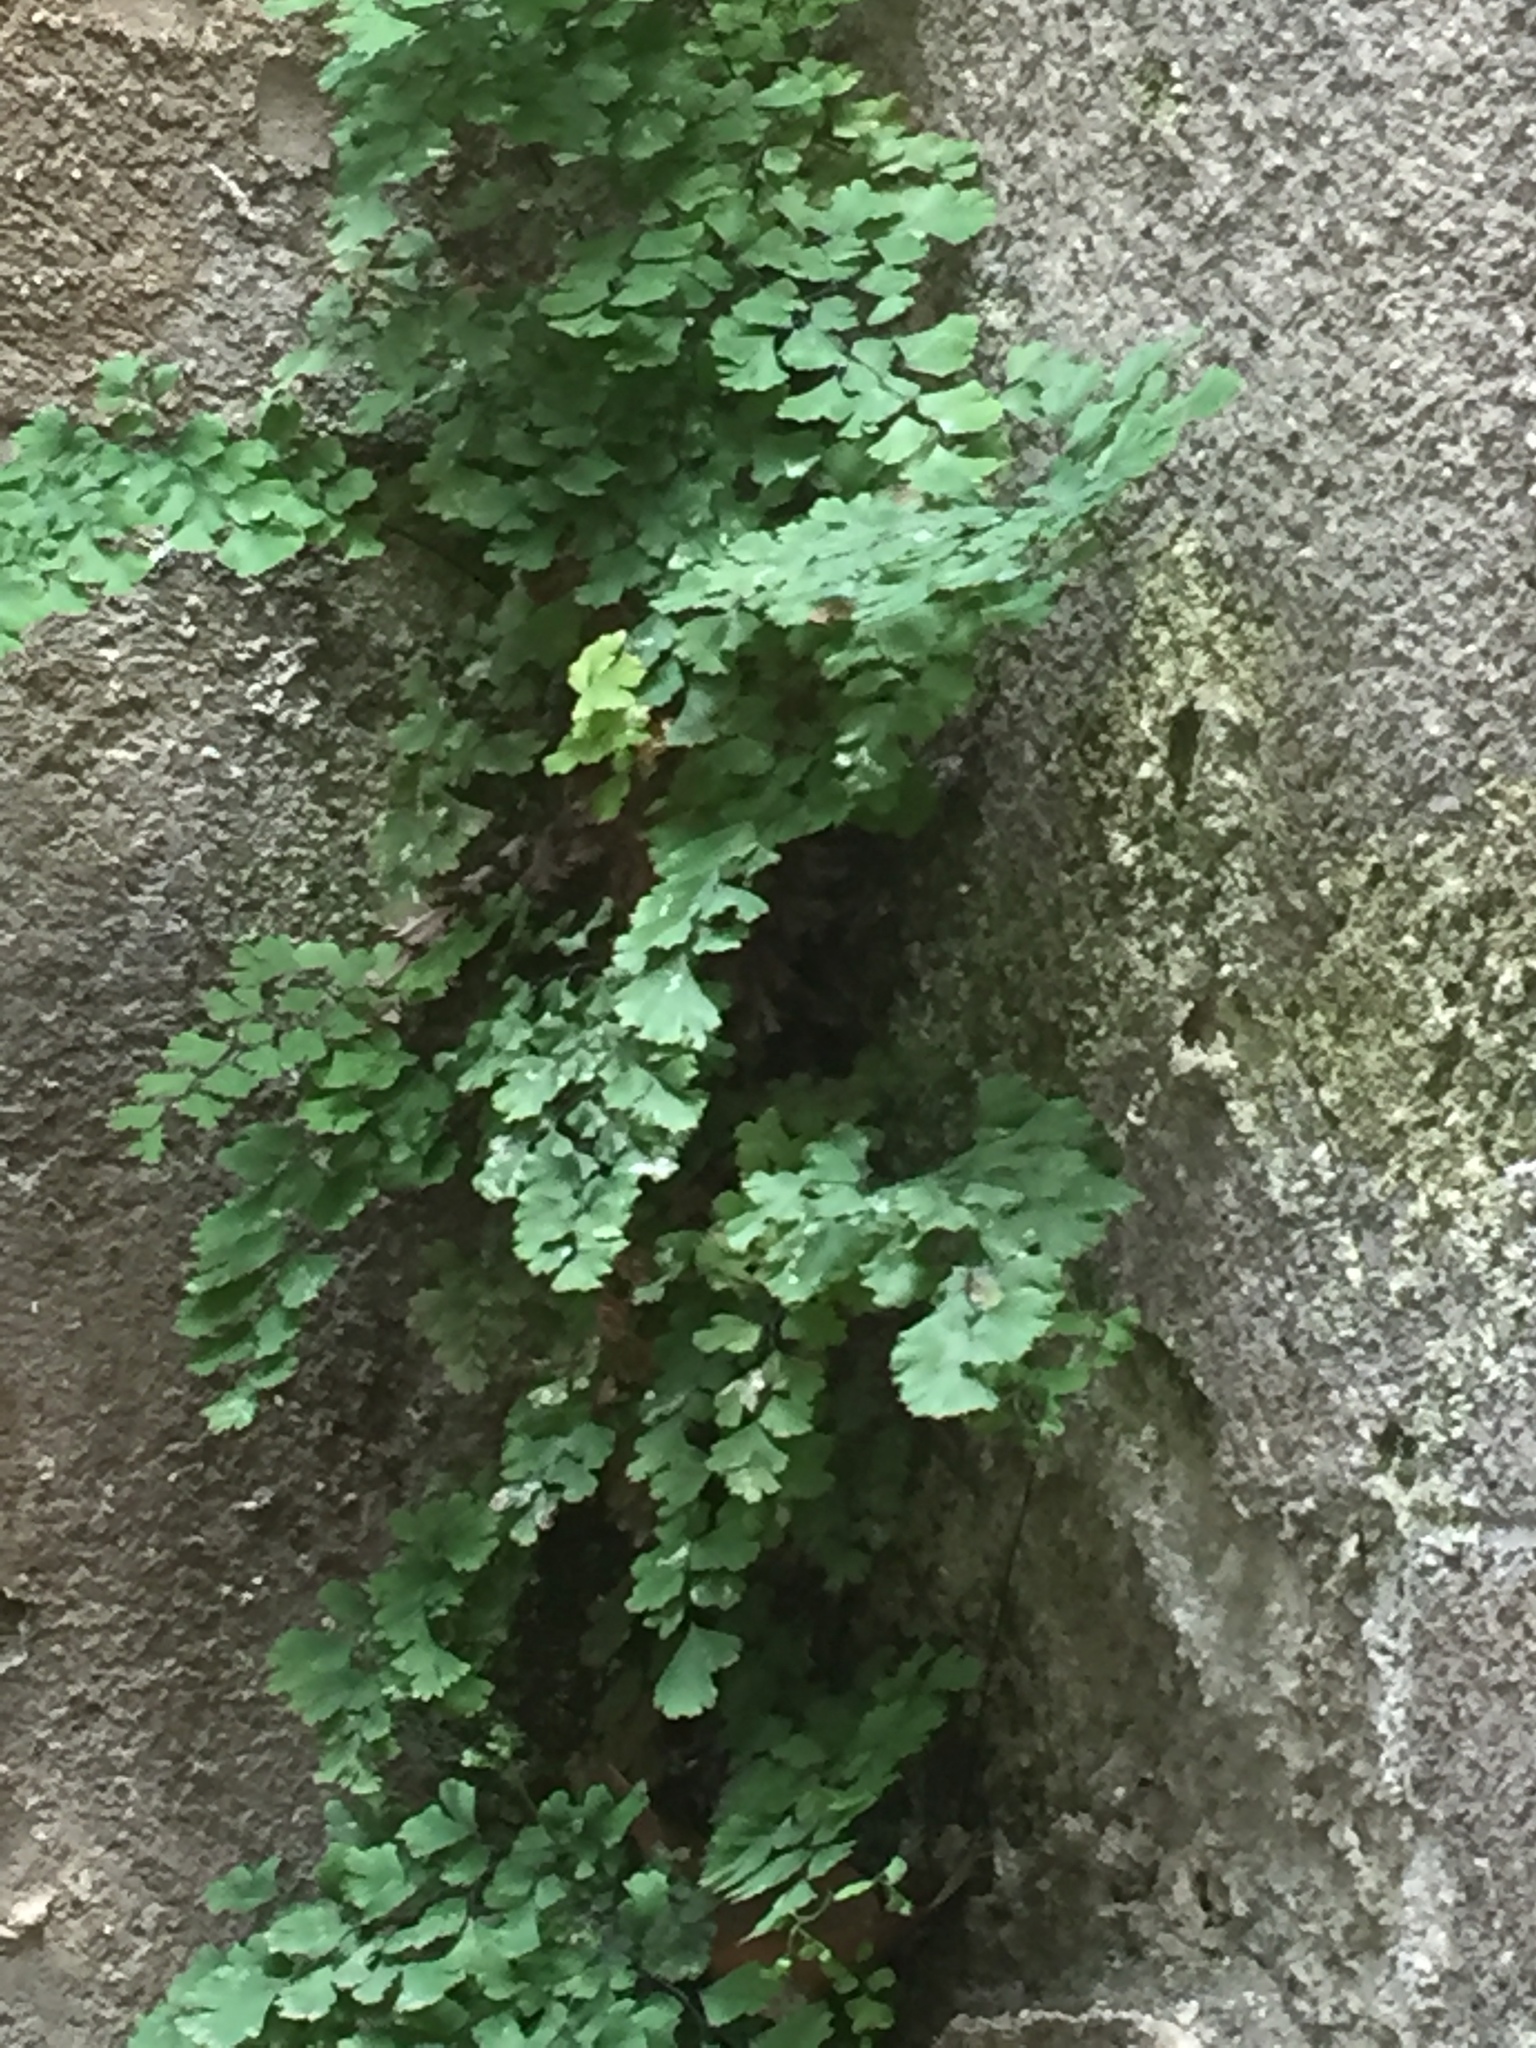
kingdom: Plantae
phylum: Tracheophyta
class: Polypodiopsida
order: Polypodiales
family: Pteridaceae
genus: Adiantum
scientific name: Adiantum capillus-veneris
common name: Maidenhair fern
